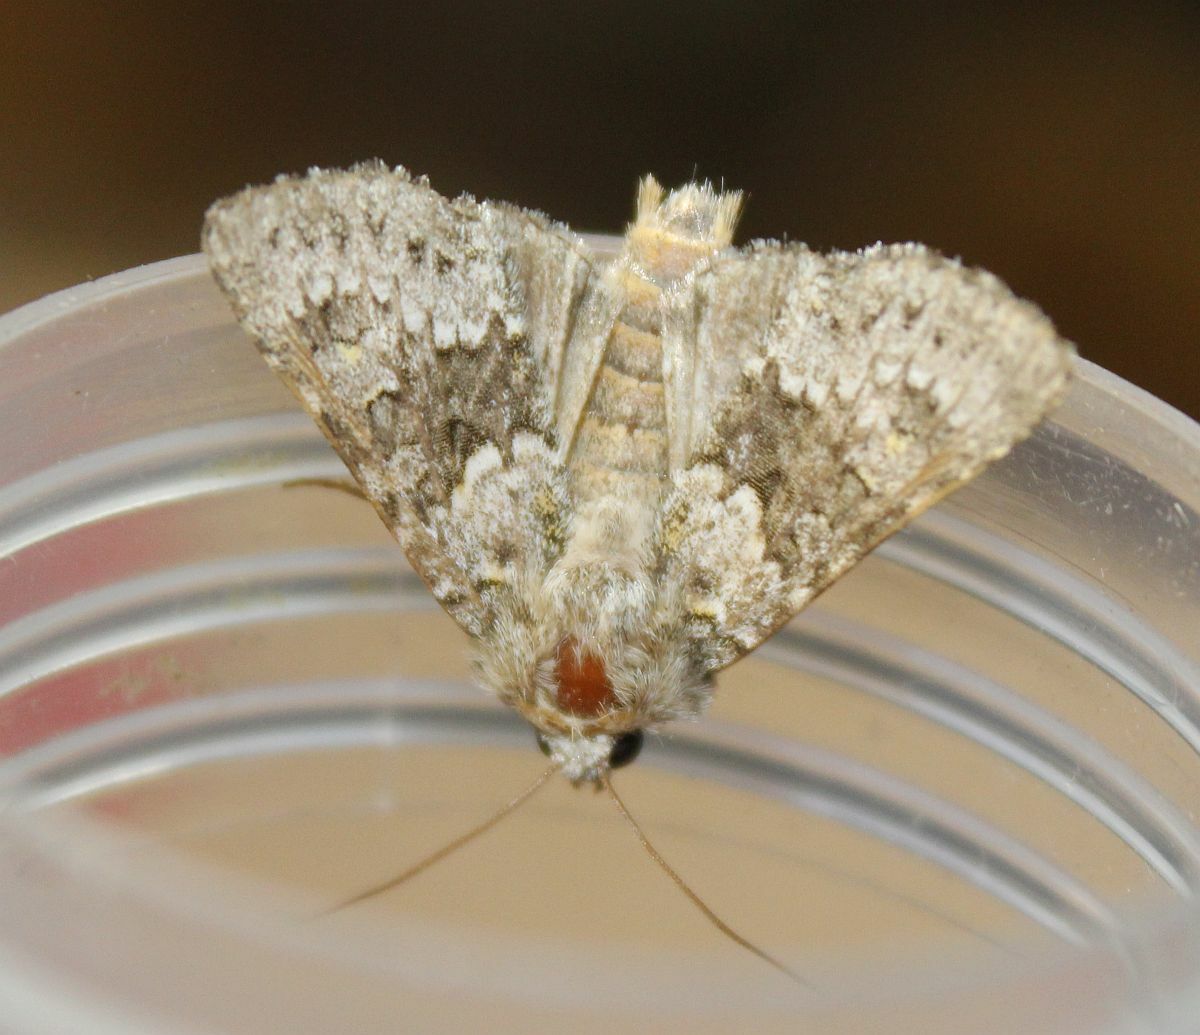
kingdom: Animalia
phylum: Arthropoda
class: Insecta
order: Lepidoptera
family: Noctuidae
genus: Hecatera
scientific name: Hecatera dysodea
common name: Small ranunculus
